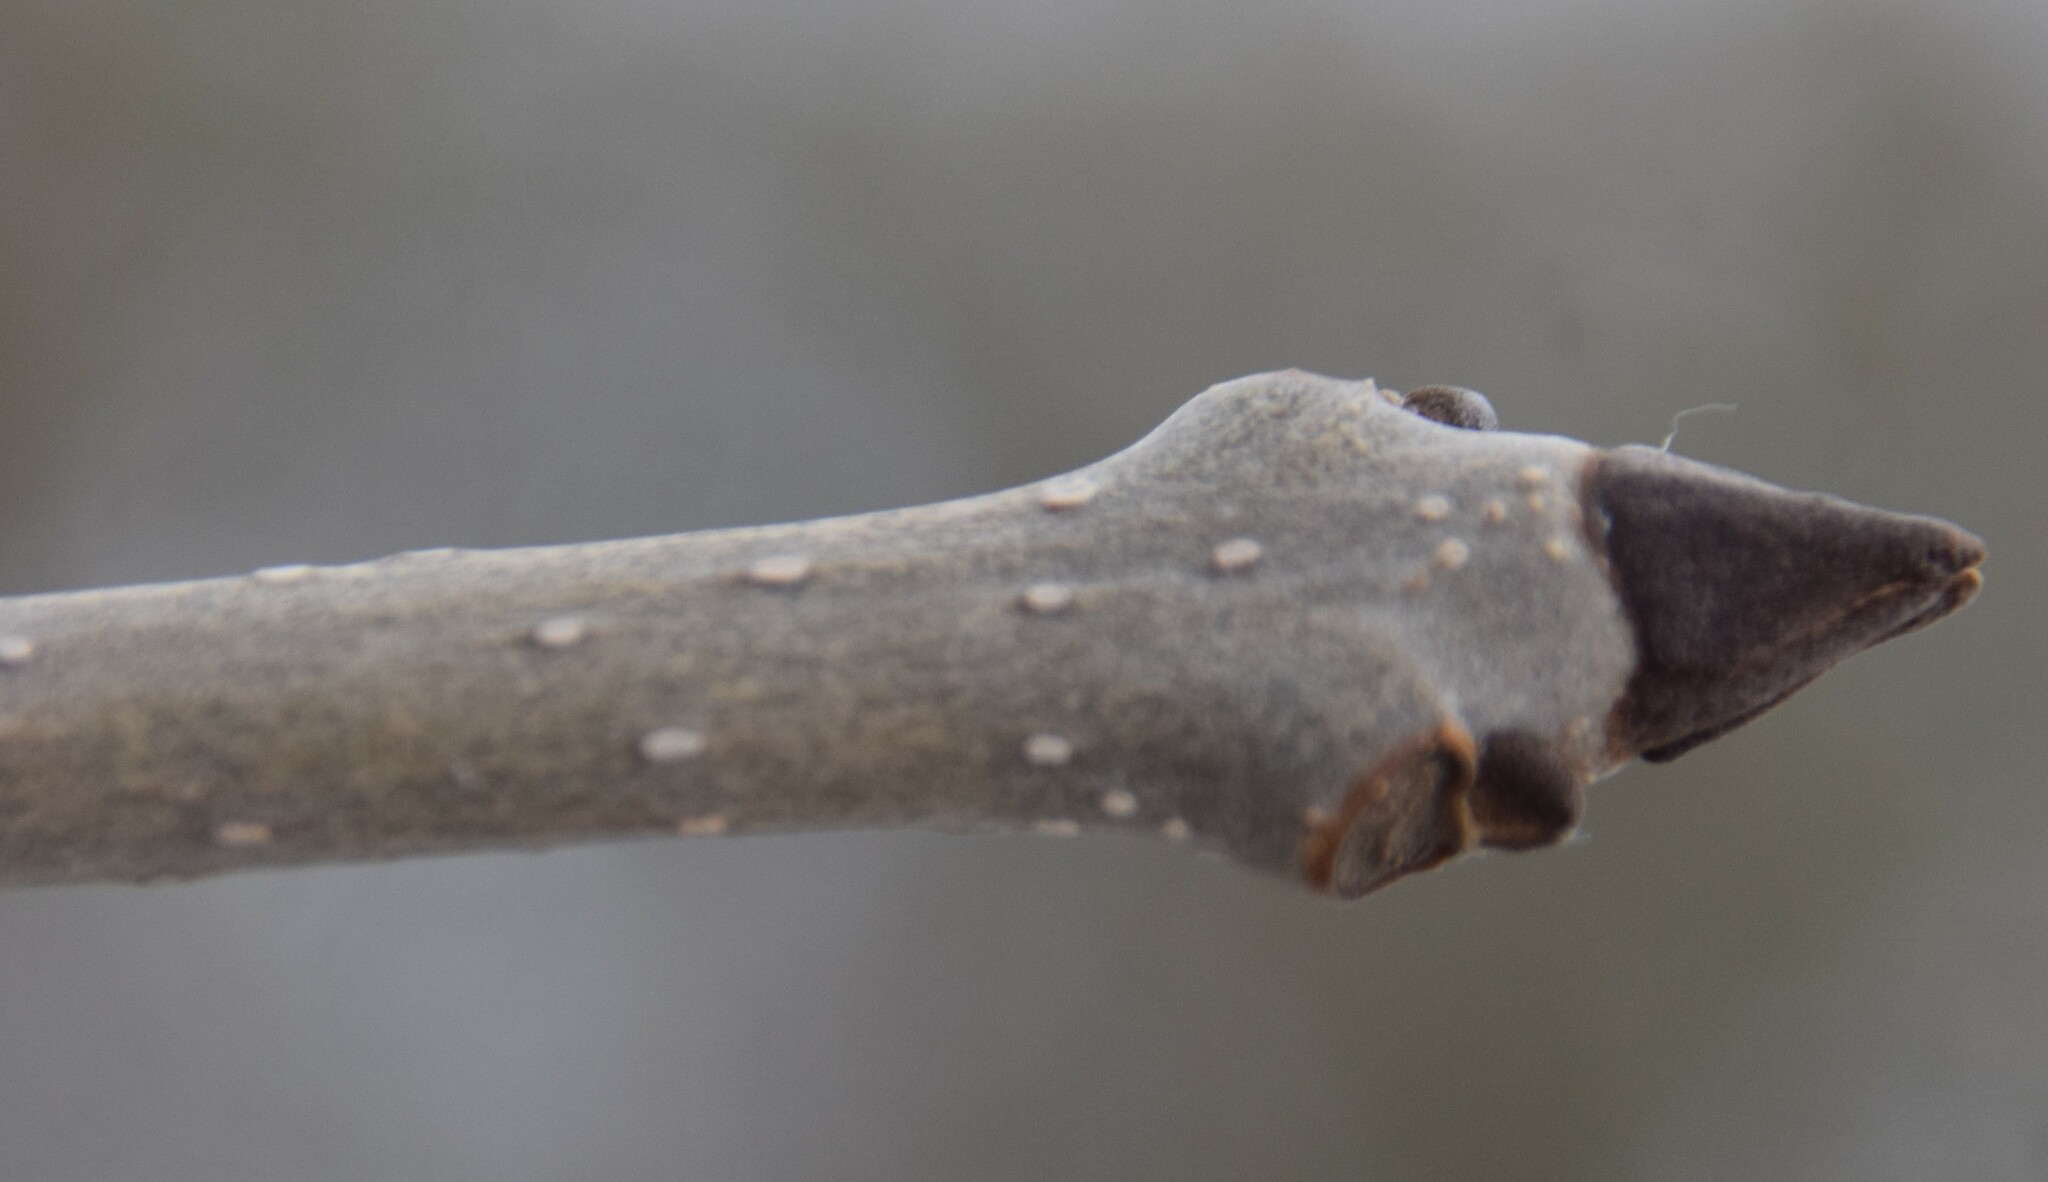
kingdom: Plantae
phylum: Tracheophyta
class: Magnoliopsida
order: Lamiales
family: Oleaceae
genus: Fraxinus
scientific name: Fraxinus nigra
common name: Black ash
